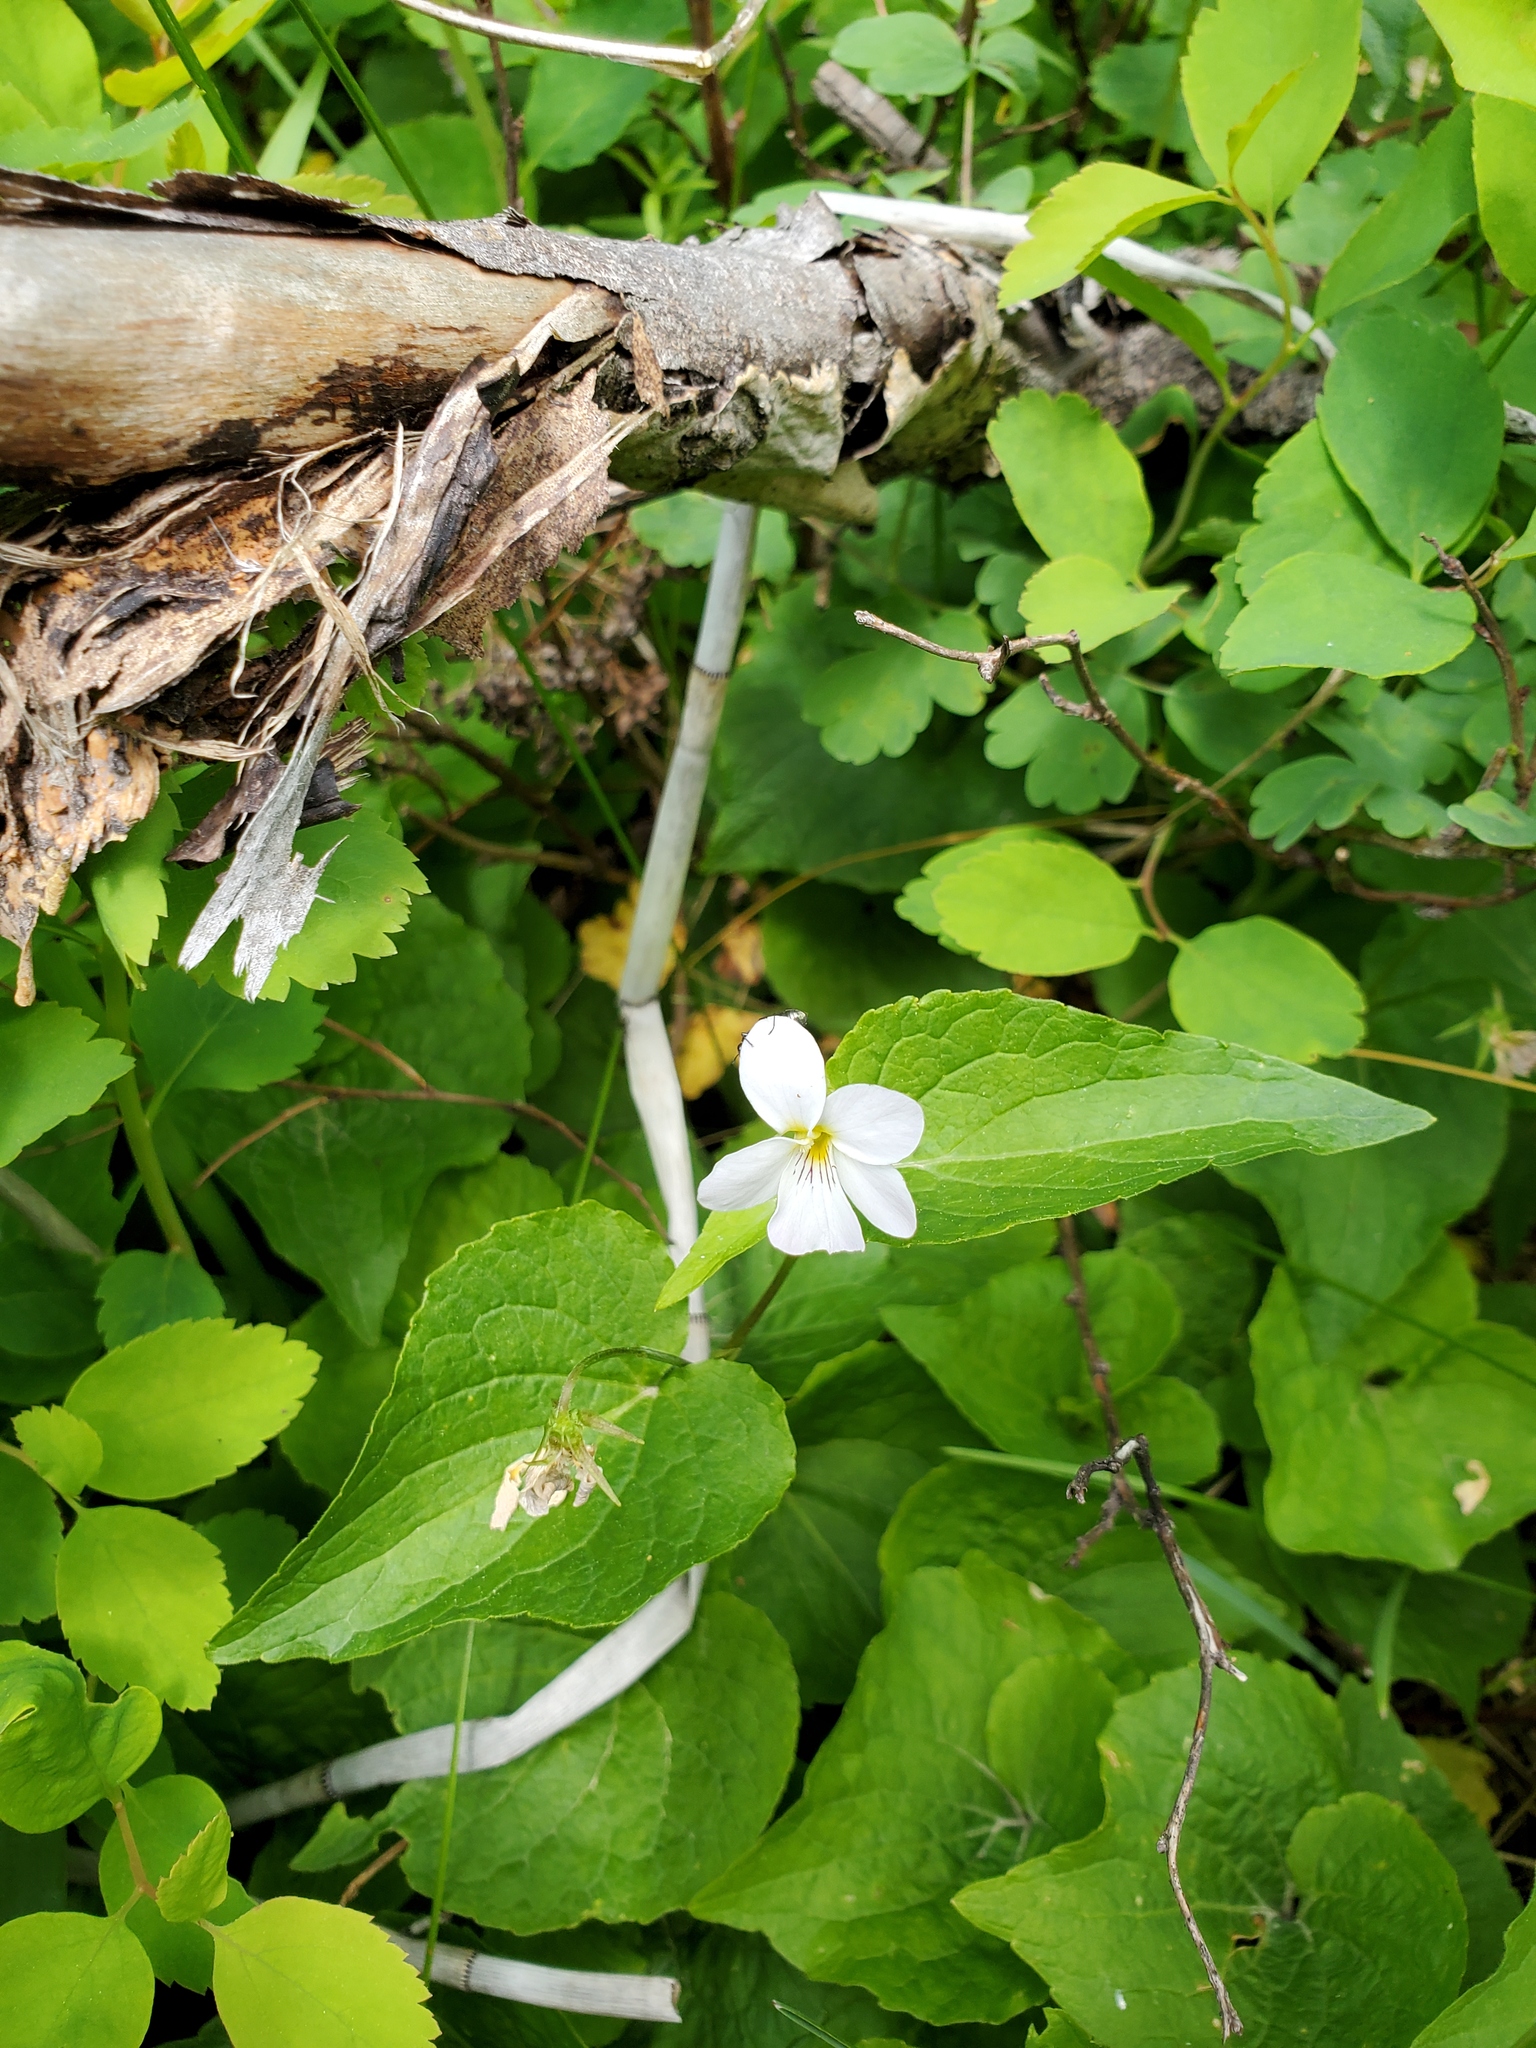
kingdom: Plantae
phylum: Tracheophyta
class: Magnoliopsida
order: Malpighiales
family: Violaceae
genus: Viola
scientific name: Viola canadensis
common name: Canada violet
